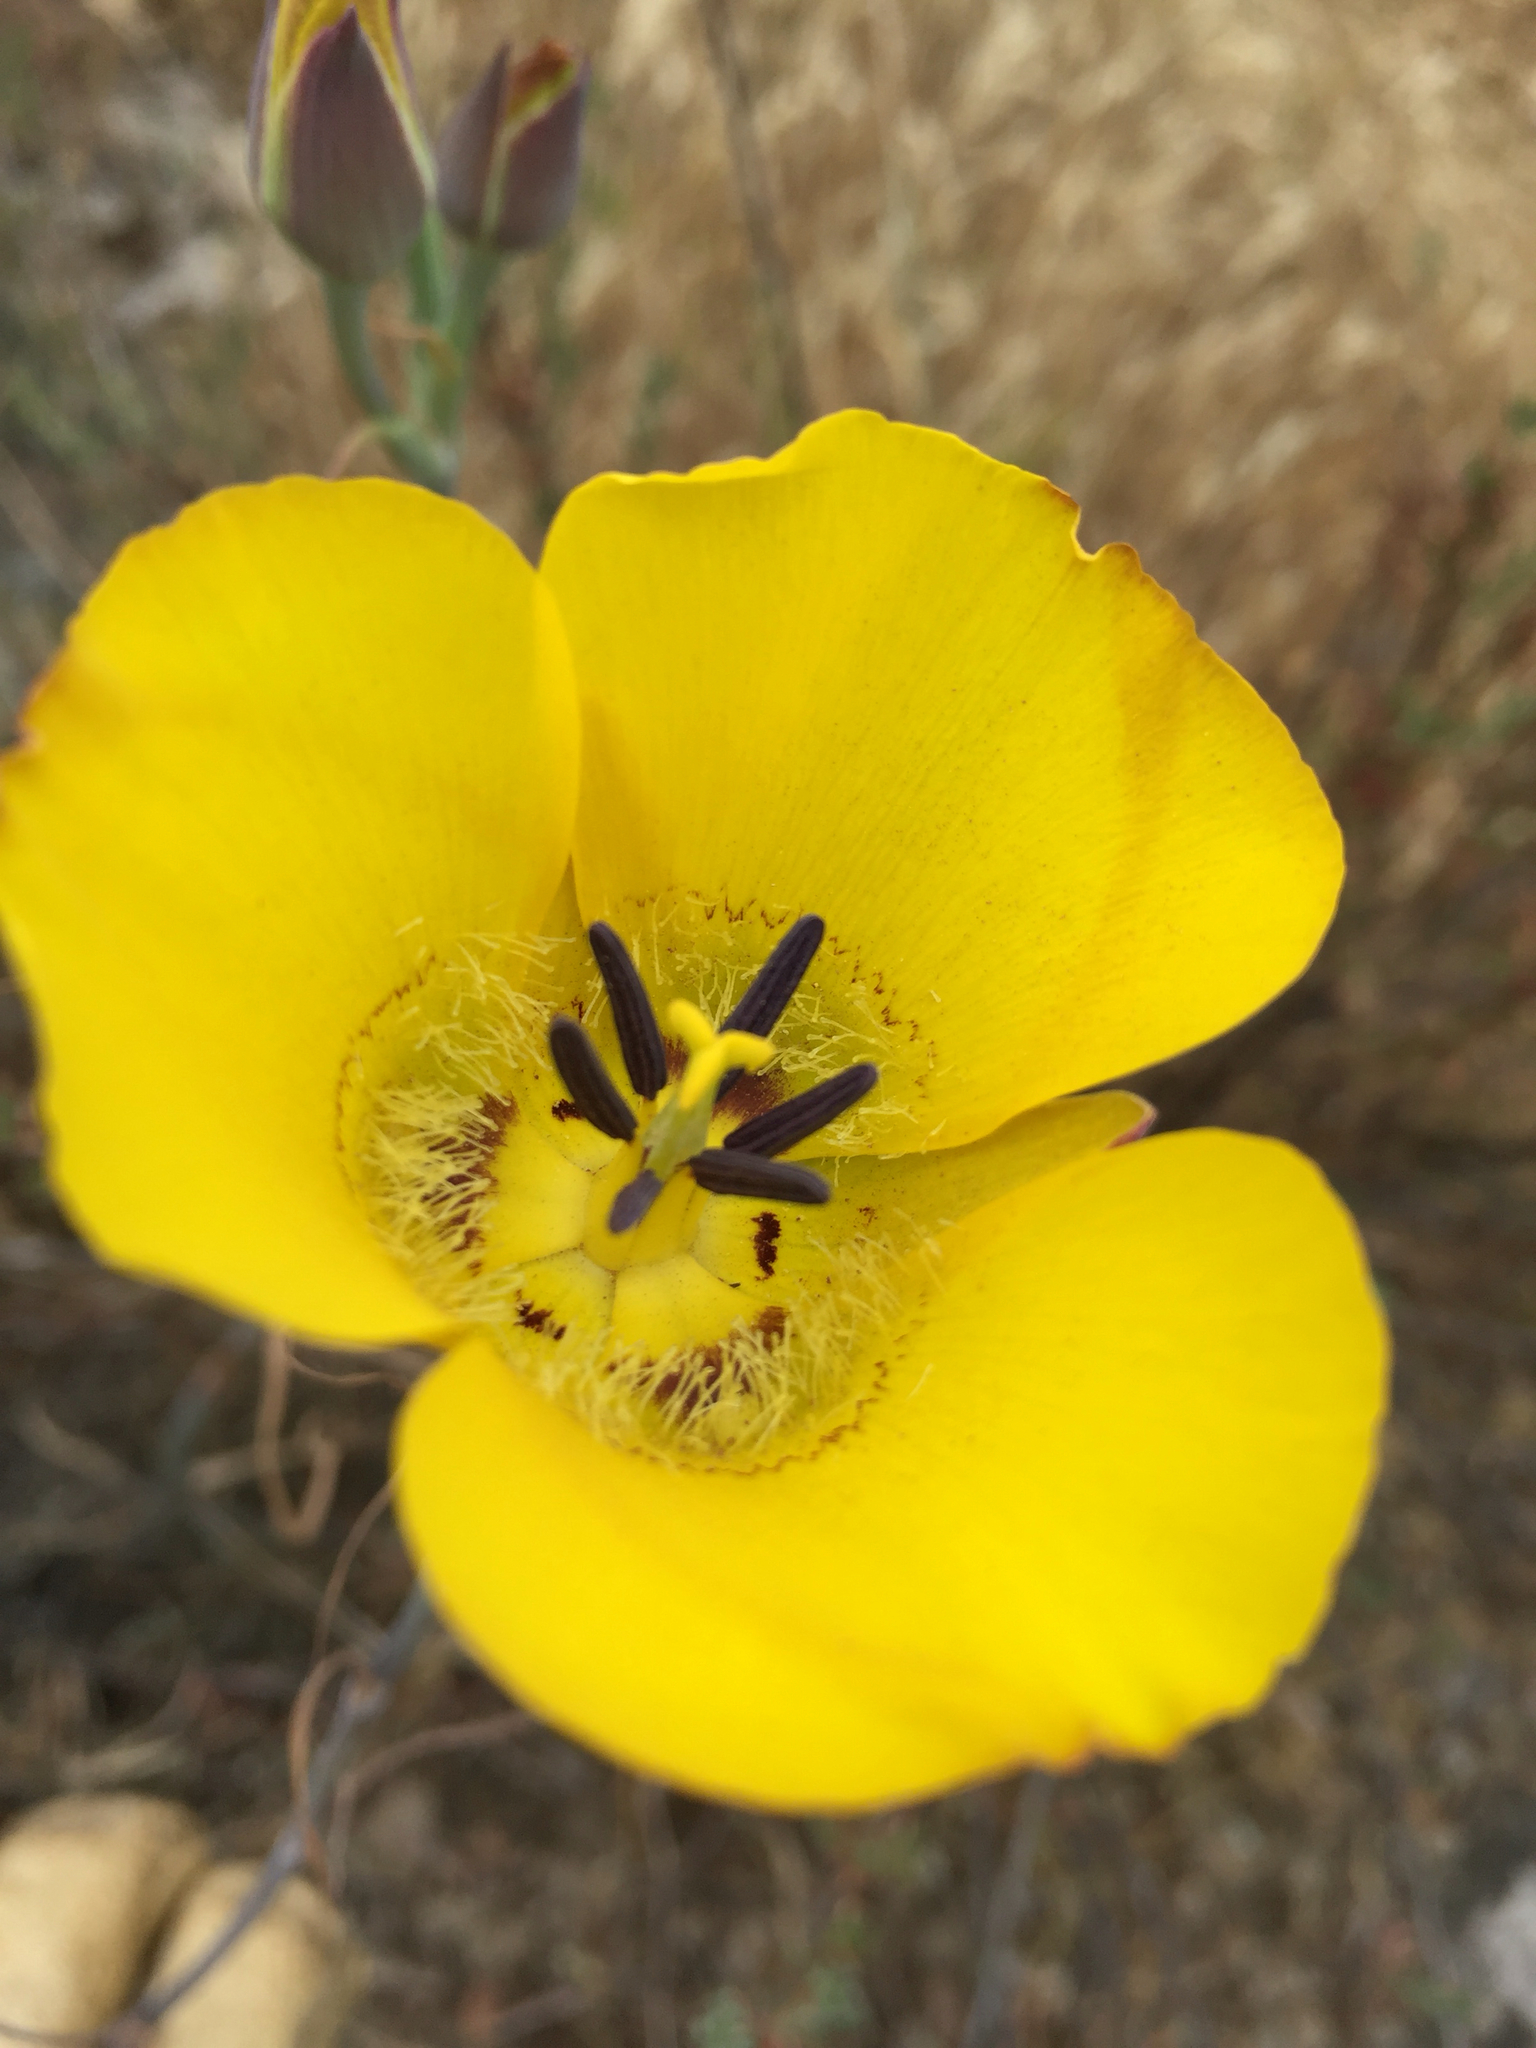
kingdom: Plantae
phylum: Tracheophyta
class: Liliopsida
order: Liliales
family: Liliaceae
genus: Calochortus
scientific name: Calochortus clavatus
